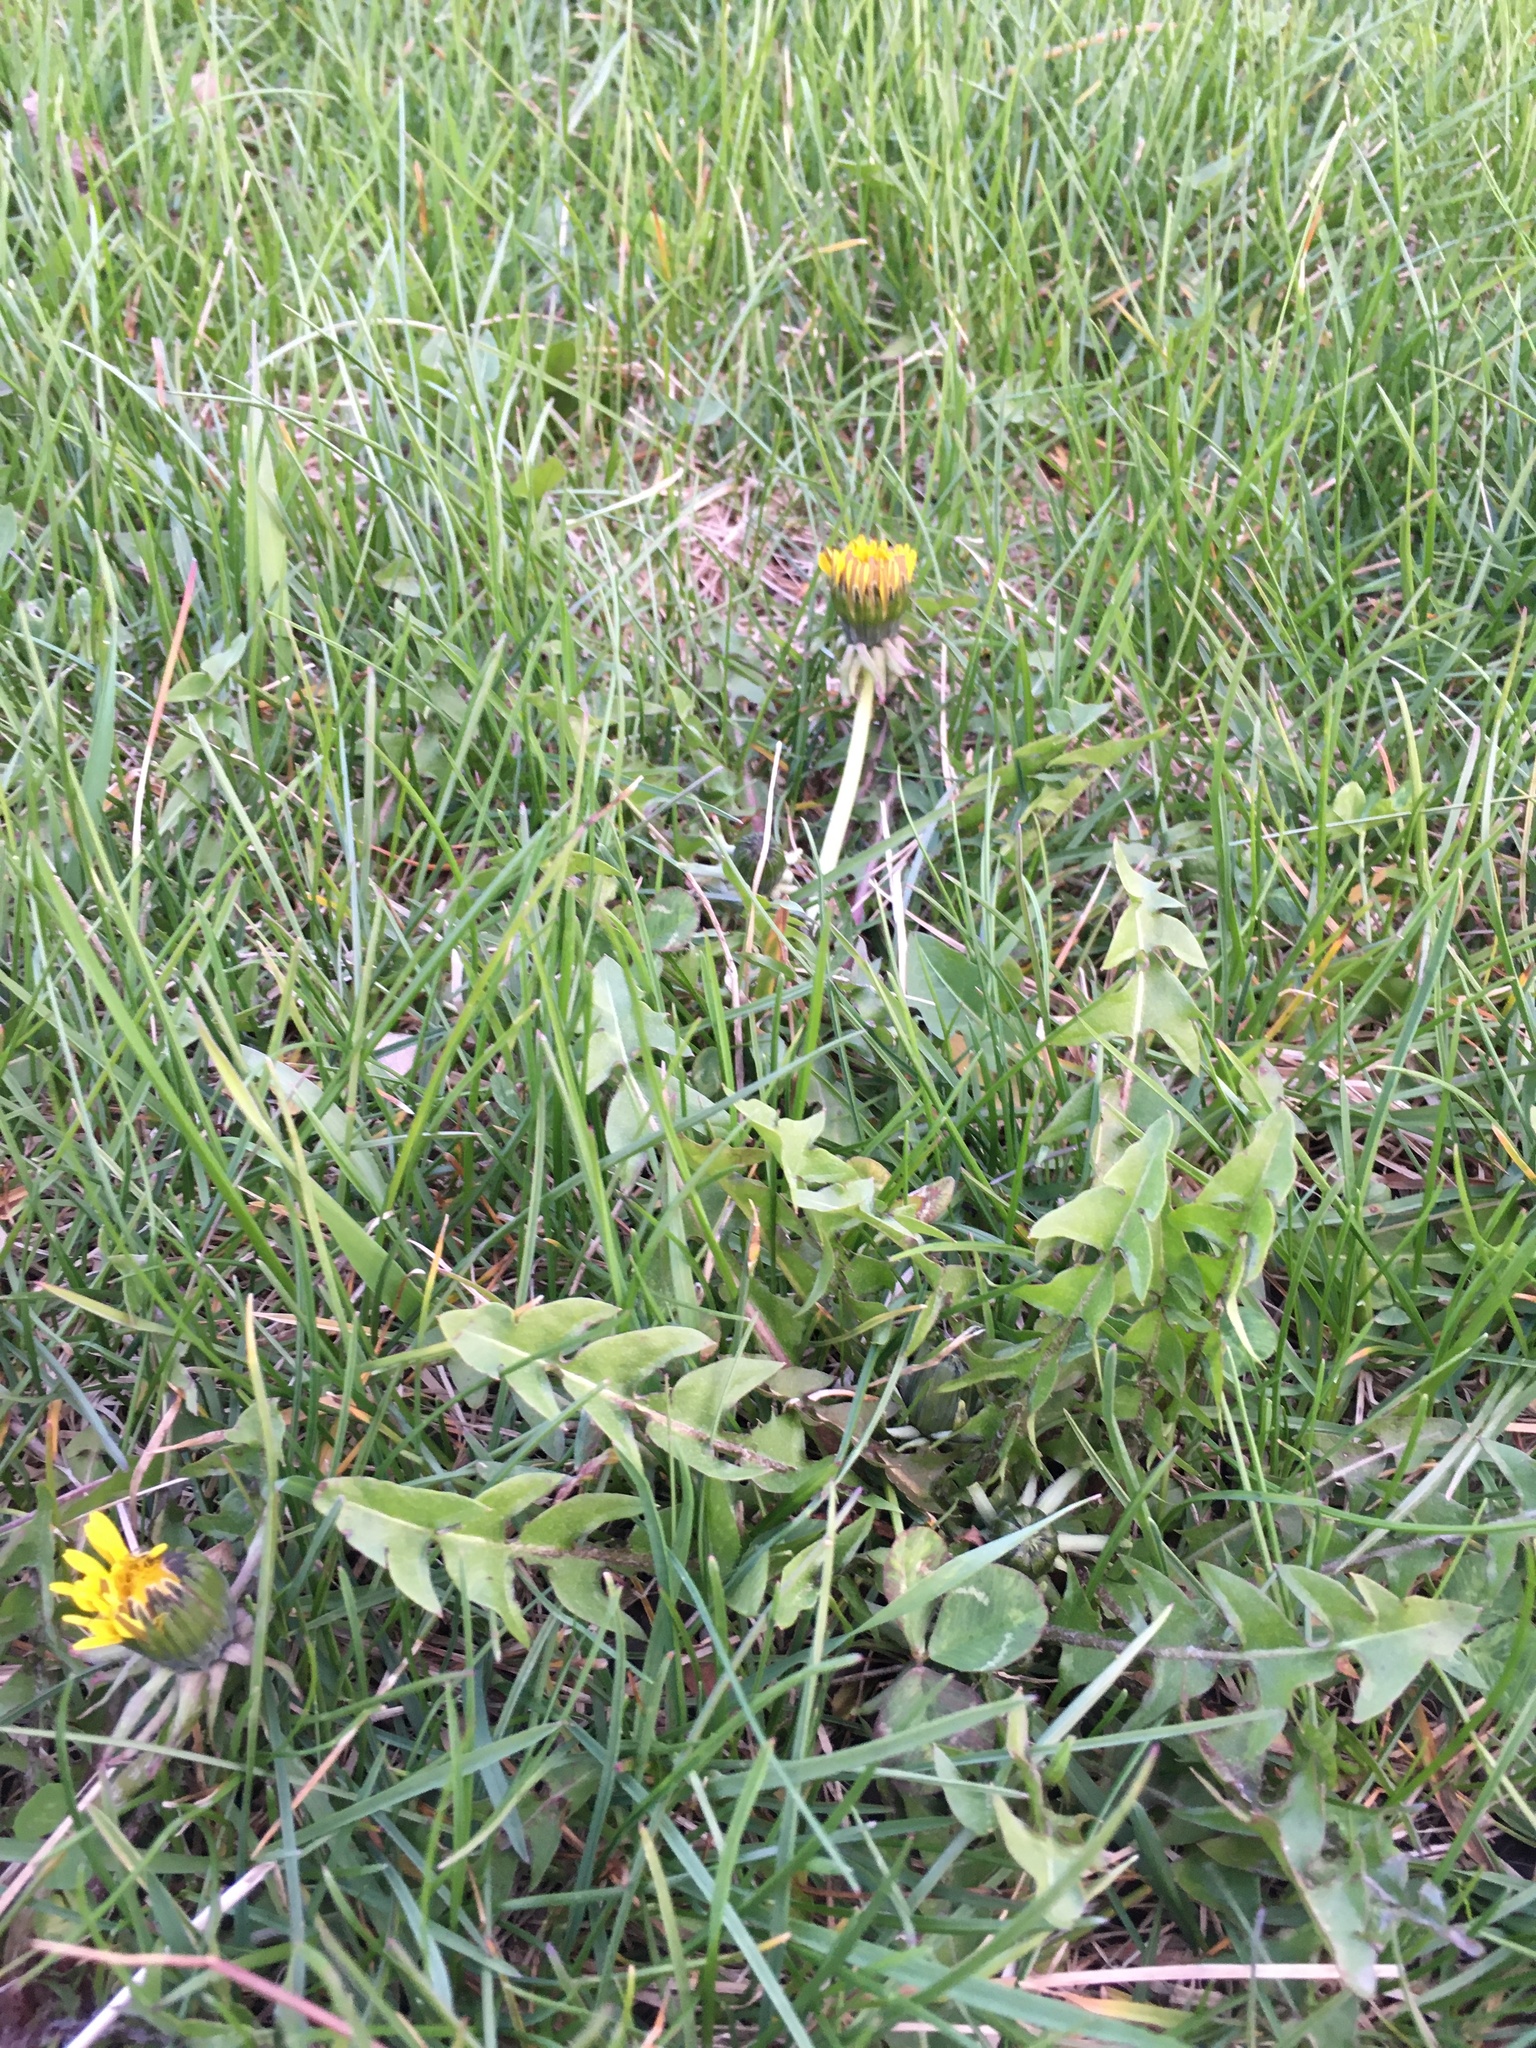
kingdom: Plantae
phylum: Tracheophyta
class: Magnoliopsida
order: Asterales
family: Asteraceae
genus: Taraxacum
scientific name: Taraxacum officinale
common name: Common dandelion
